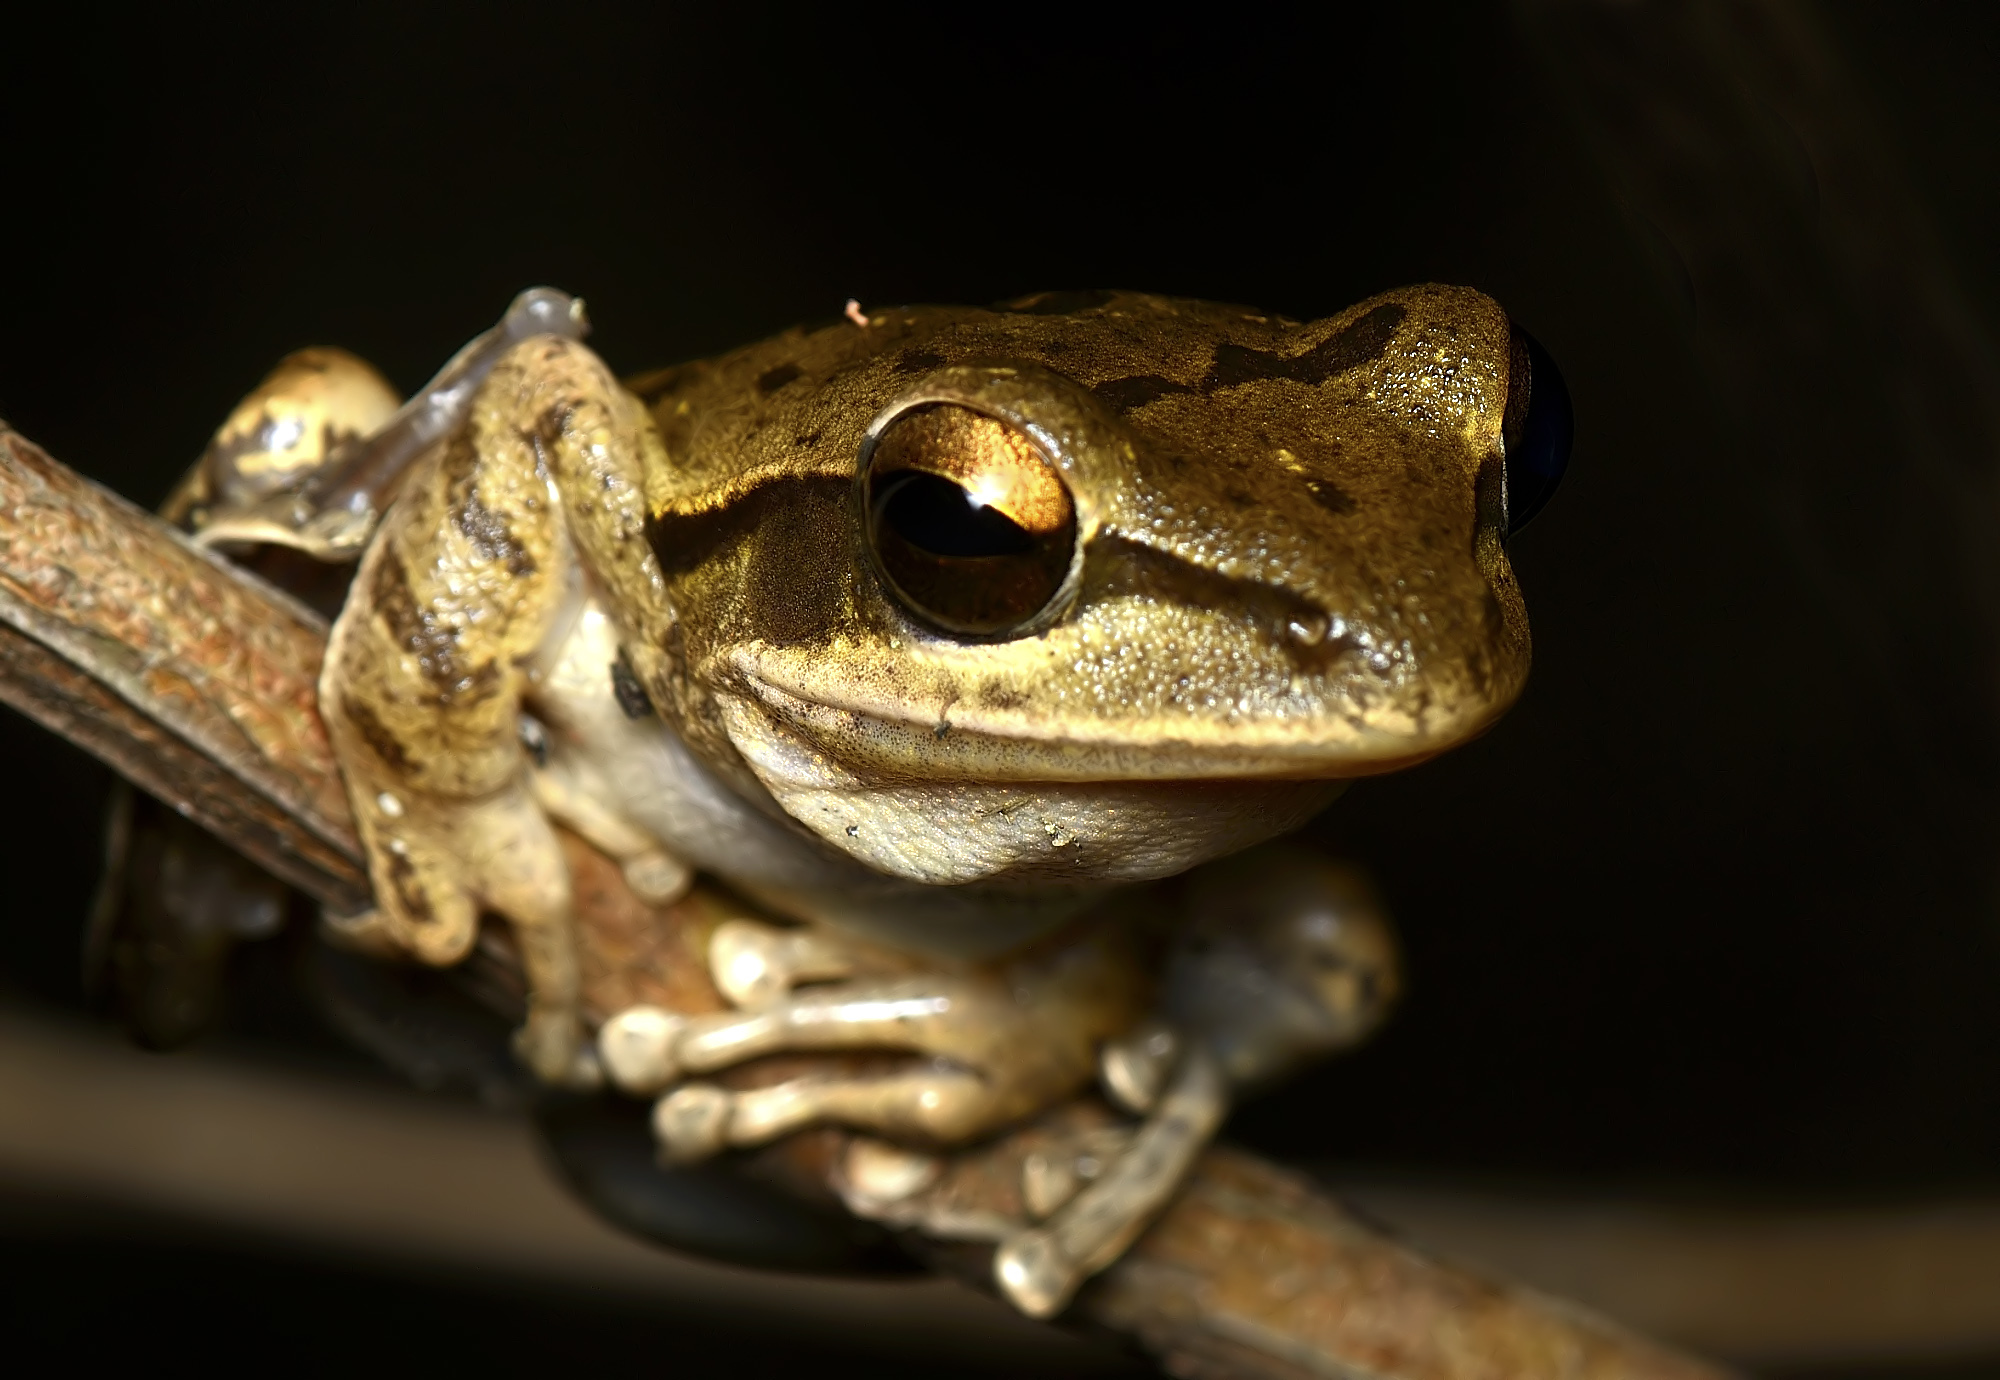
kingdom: Animalia
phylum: Chordata
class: Amphibia
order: Anura
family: Rhacophoridae
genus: Polypedates
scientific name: Polypedates maculatus
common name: Himalayan tree frog
